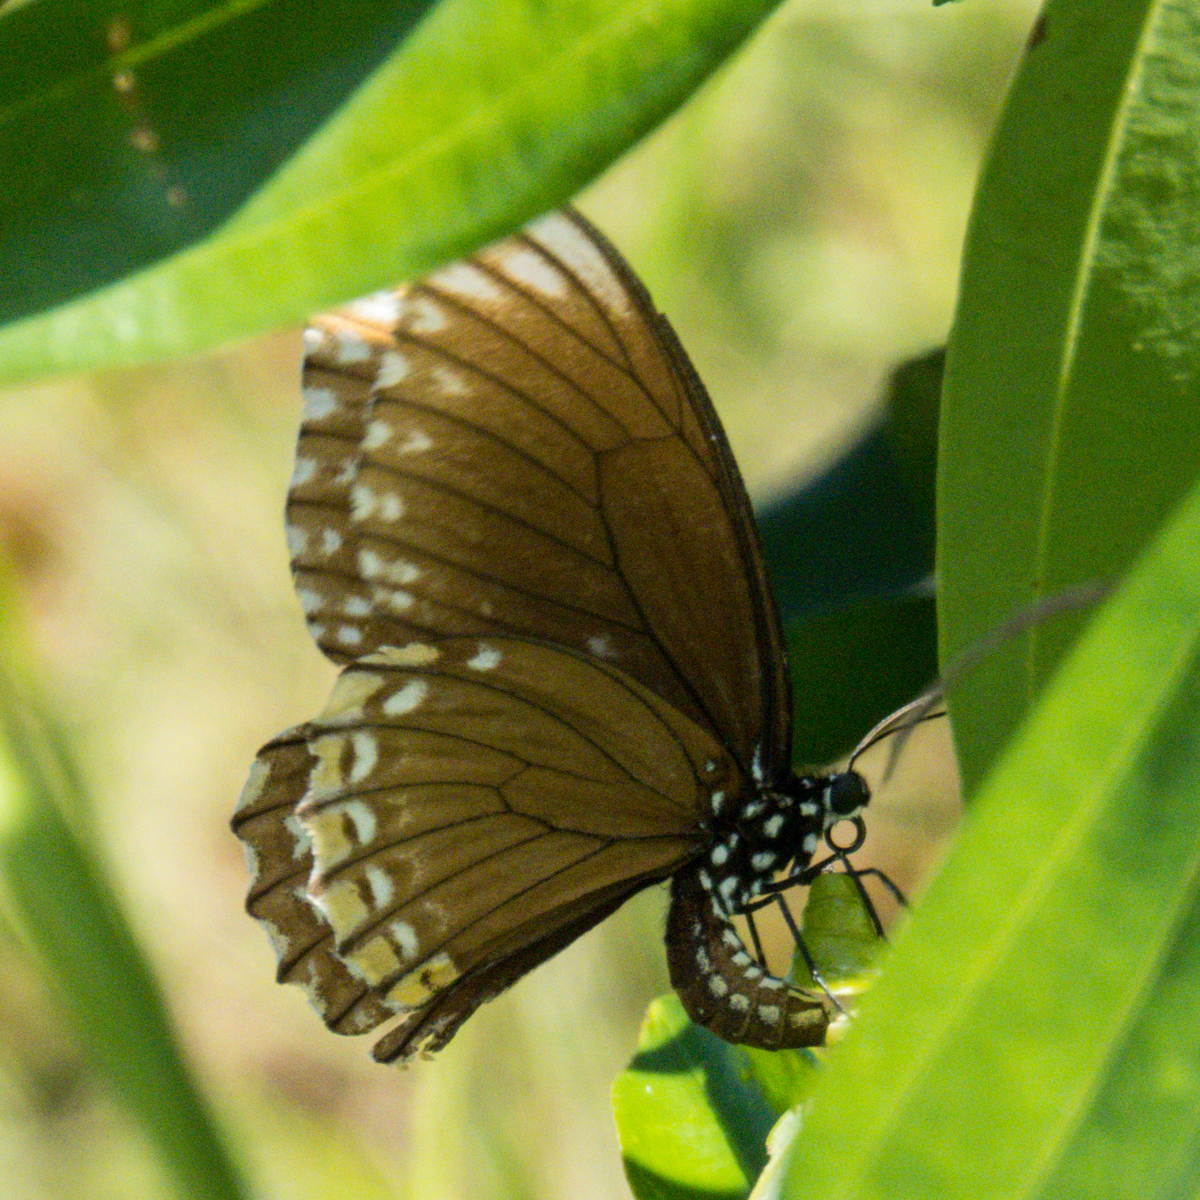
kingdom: Animalia
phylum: Arthropoda
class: Insecta
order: Lepidoptera
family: Papilionidae
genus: Chilasa
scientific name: Chilasa clytia
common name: Common mime
